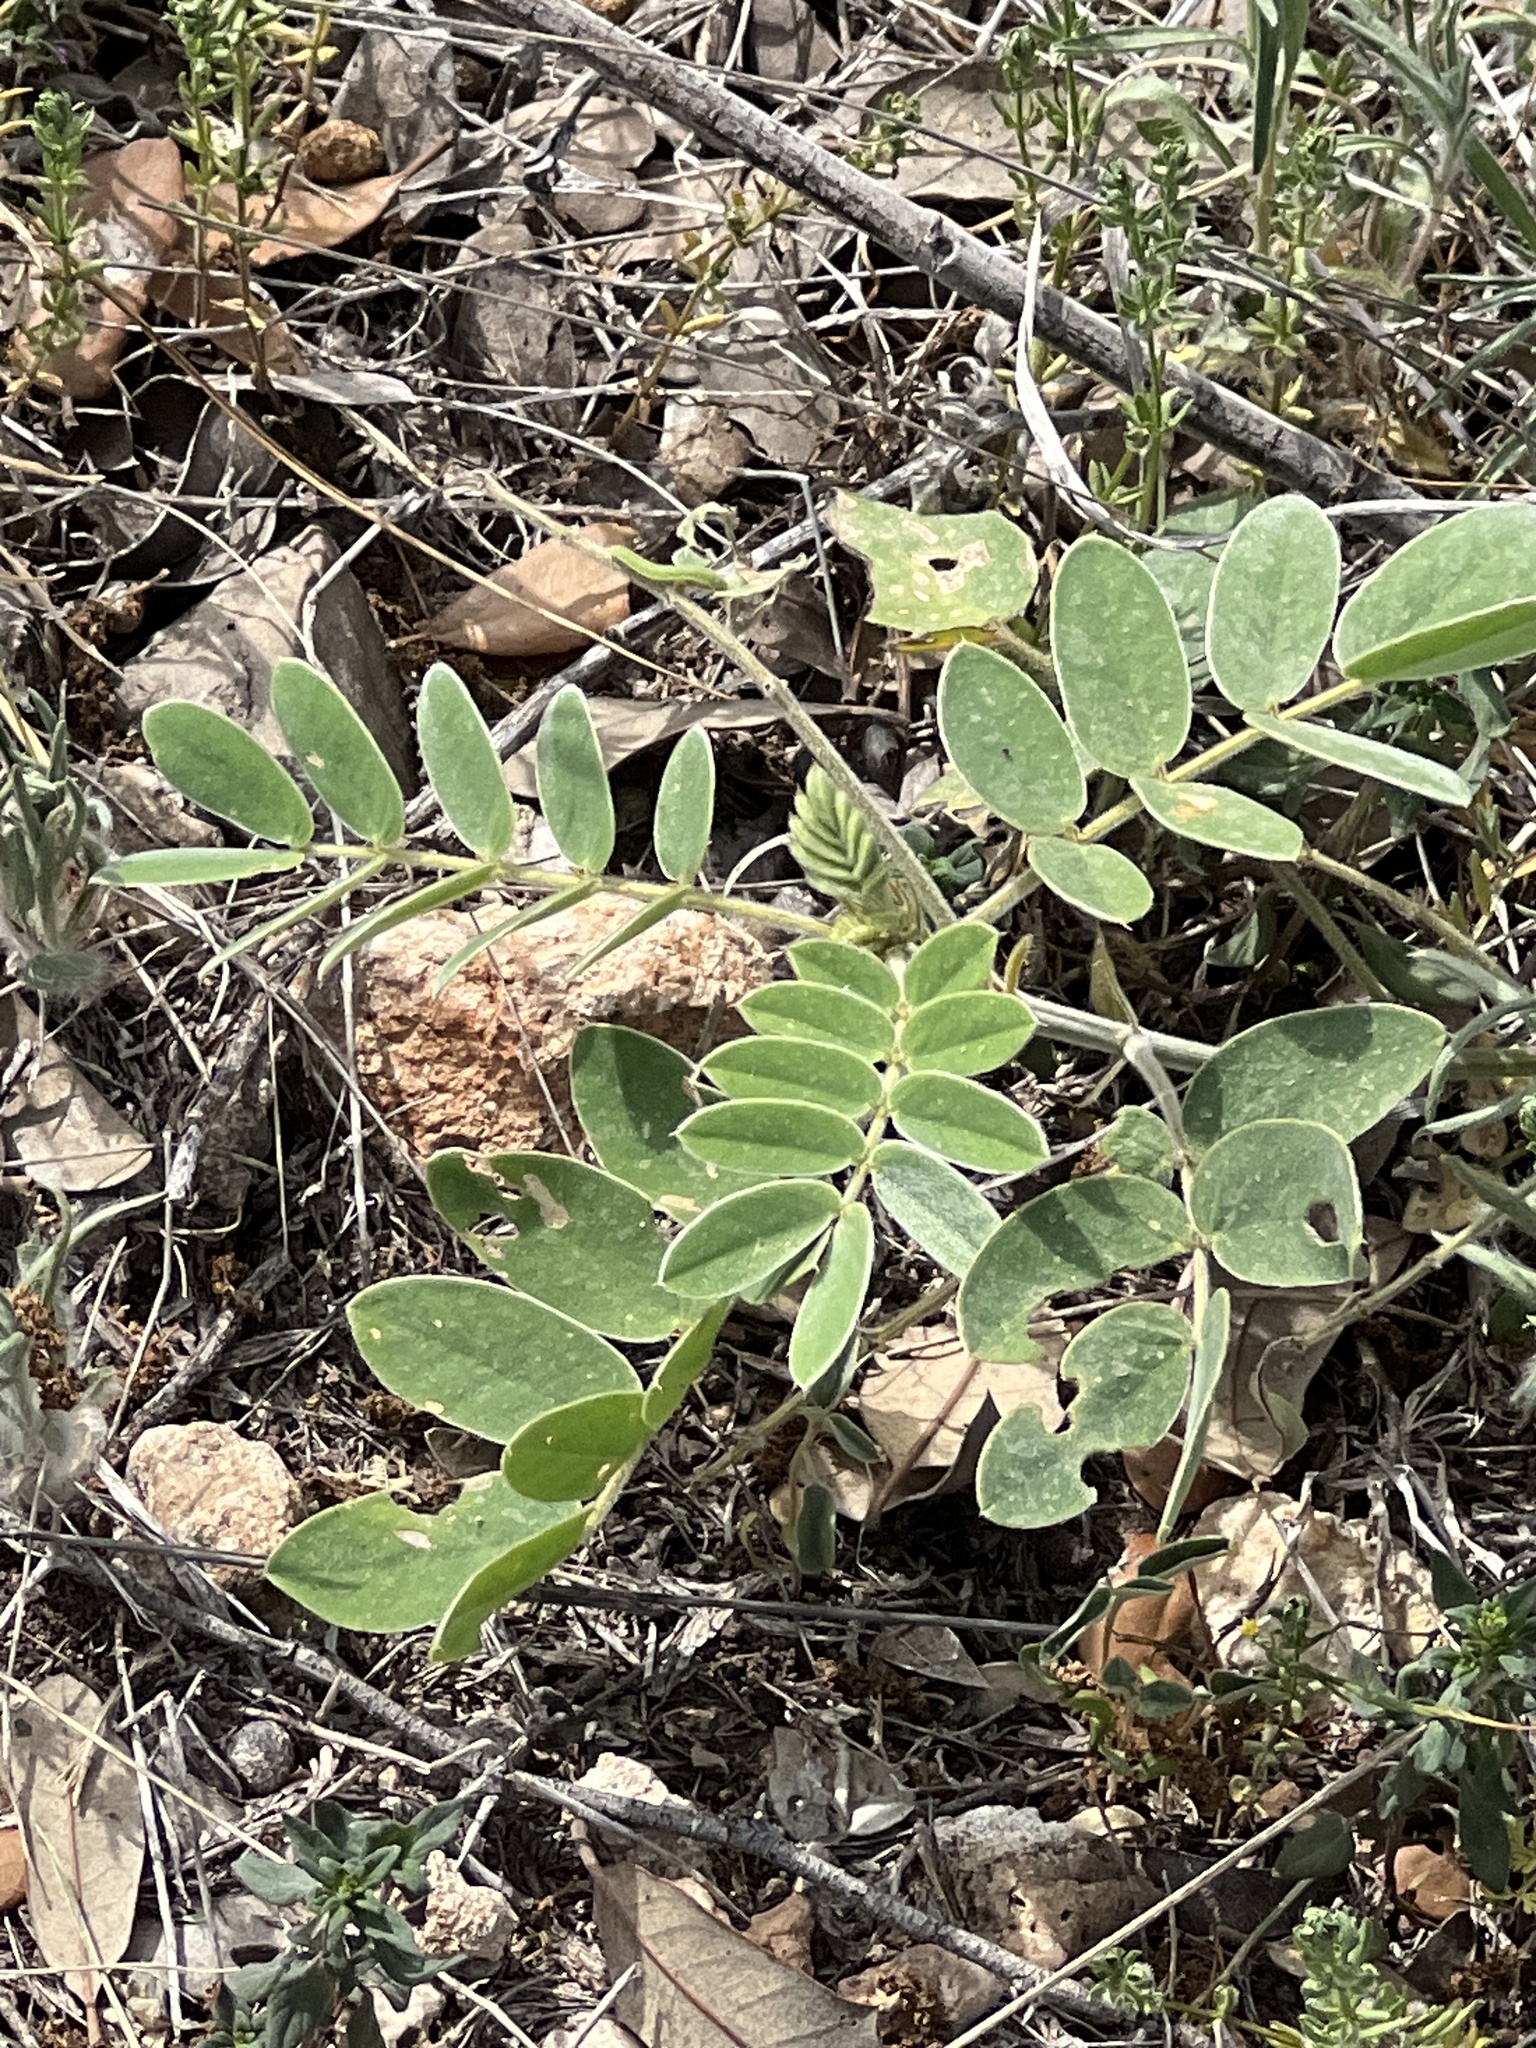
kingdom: Plantae
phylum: Tracheophyta
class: Magnoliopsida
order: Fabales
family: Fabaceae
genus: Senna
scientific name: Senna lindheimeriana
